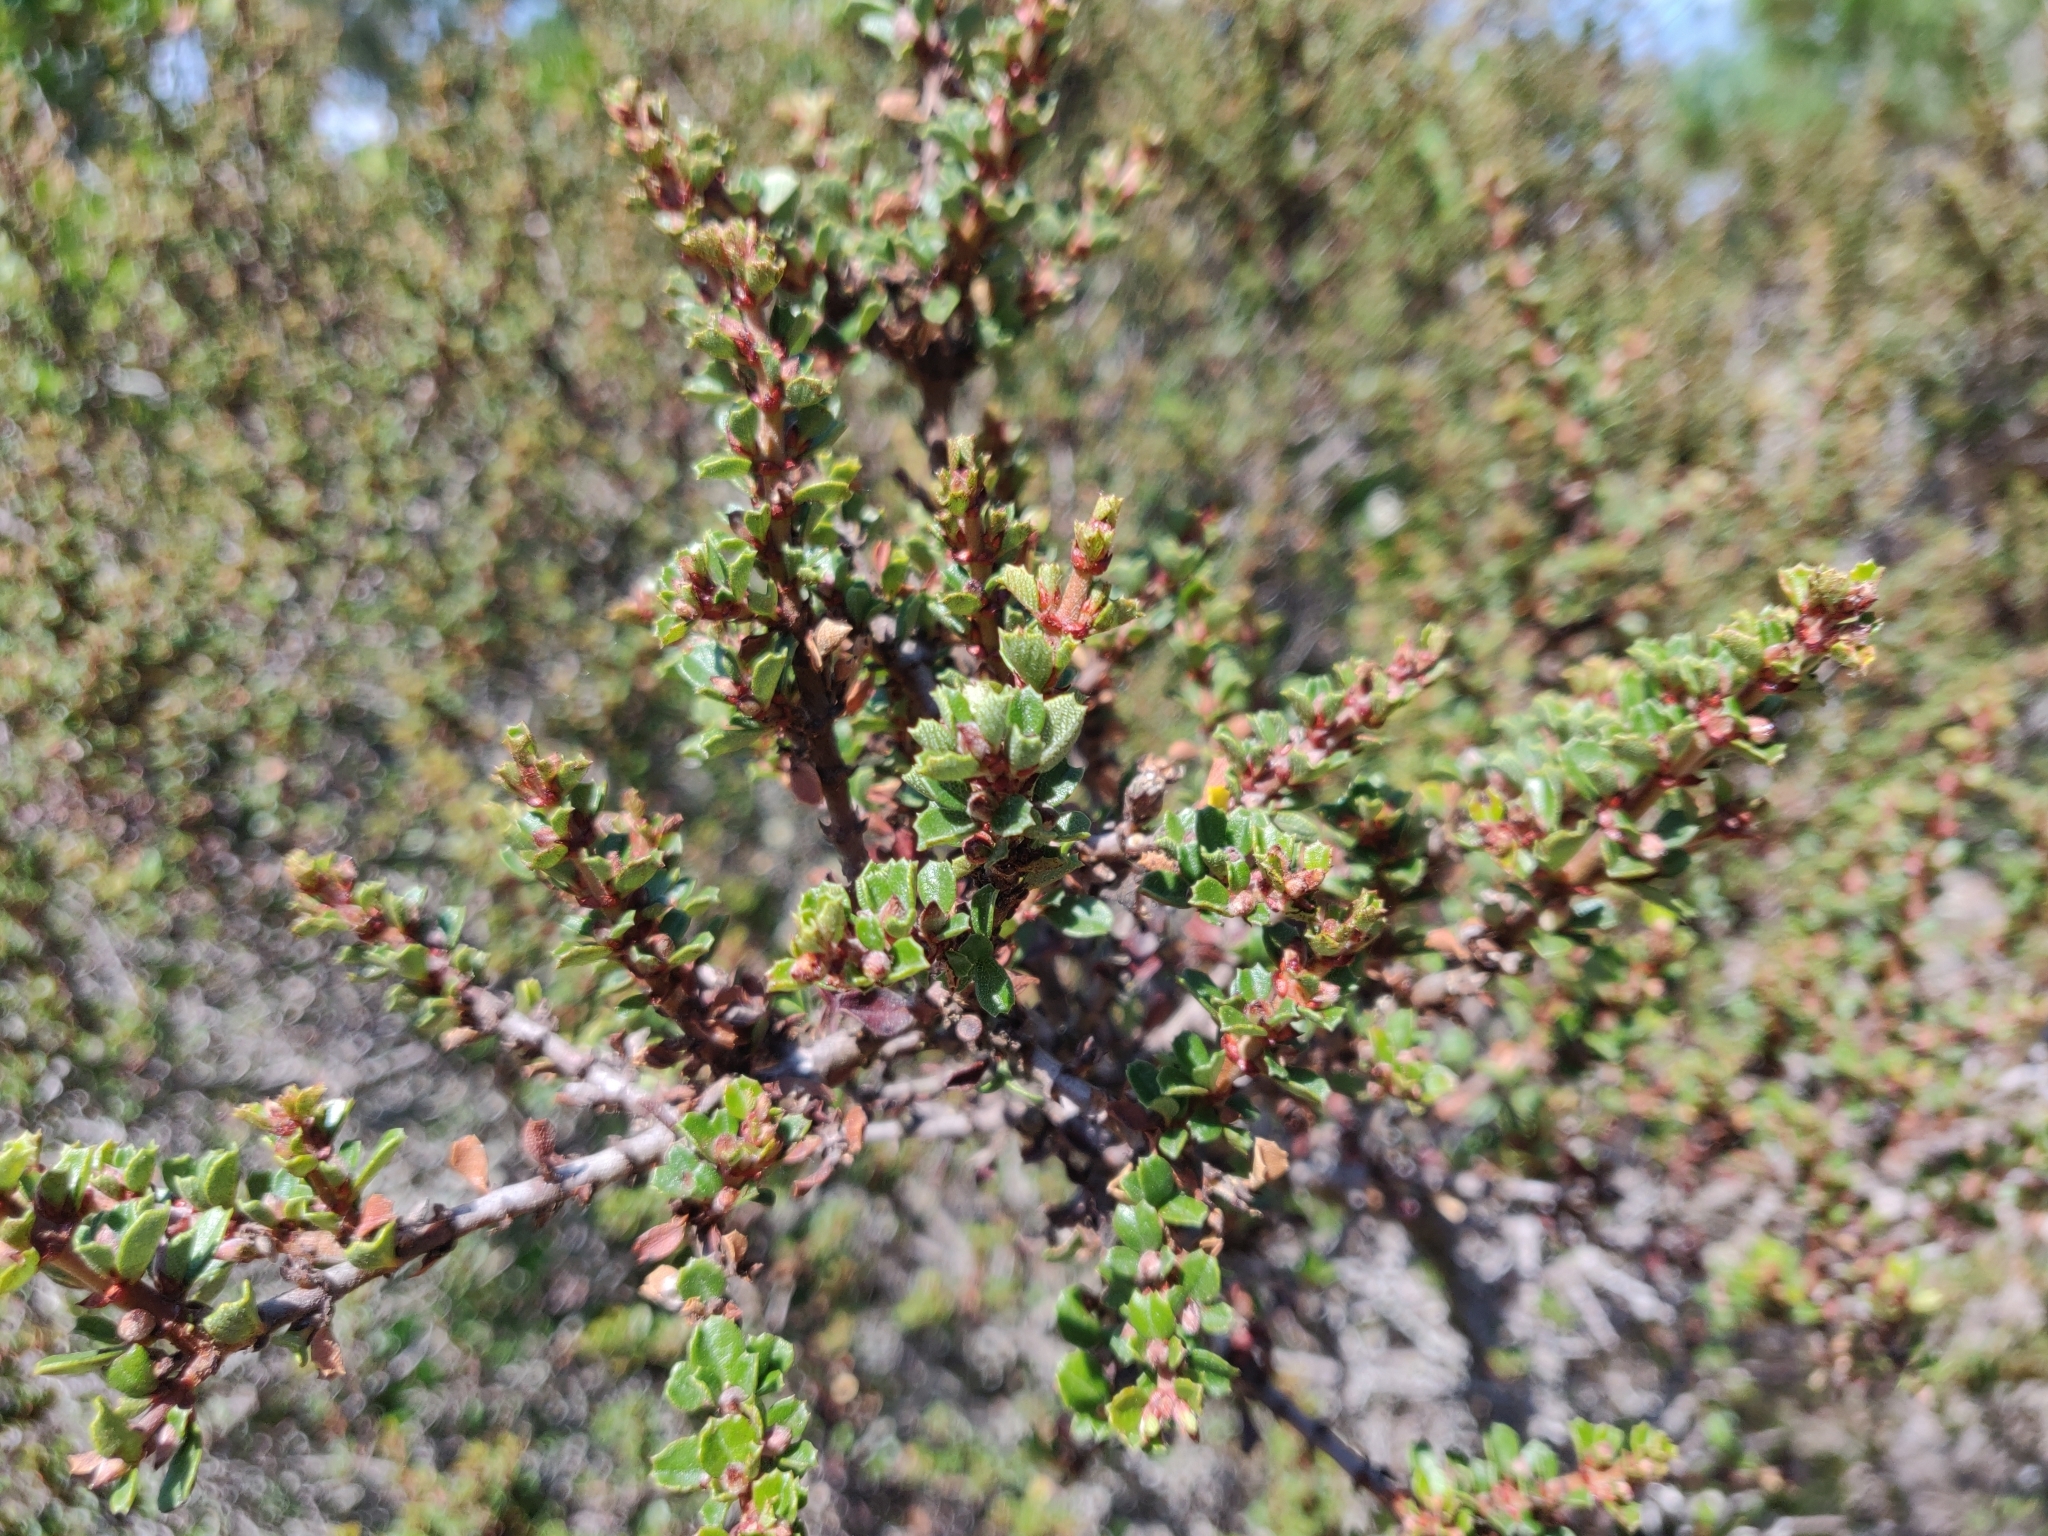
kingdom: Plantae
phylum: Tracheophyta
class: Magnoliopsida
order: Rosales
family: Rhamnaceae
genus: Ceanothus
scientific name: Ceanothus cuneatus
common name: Cuneate ceanothus
